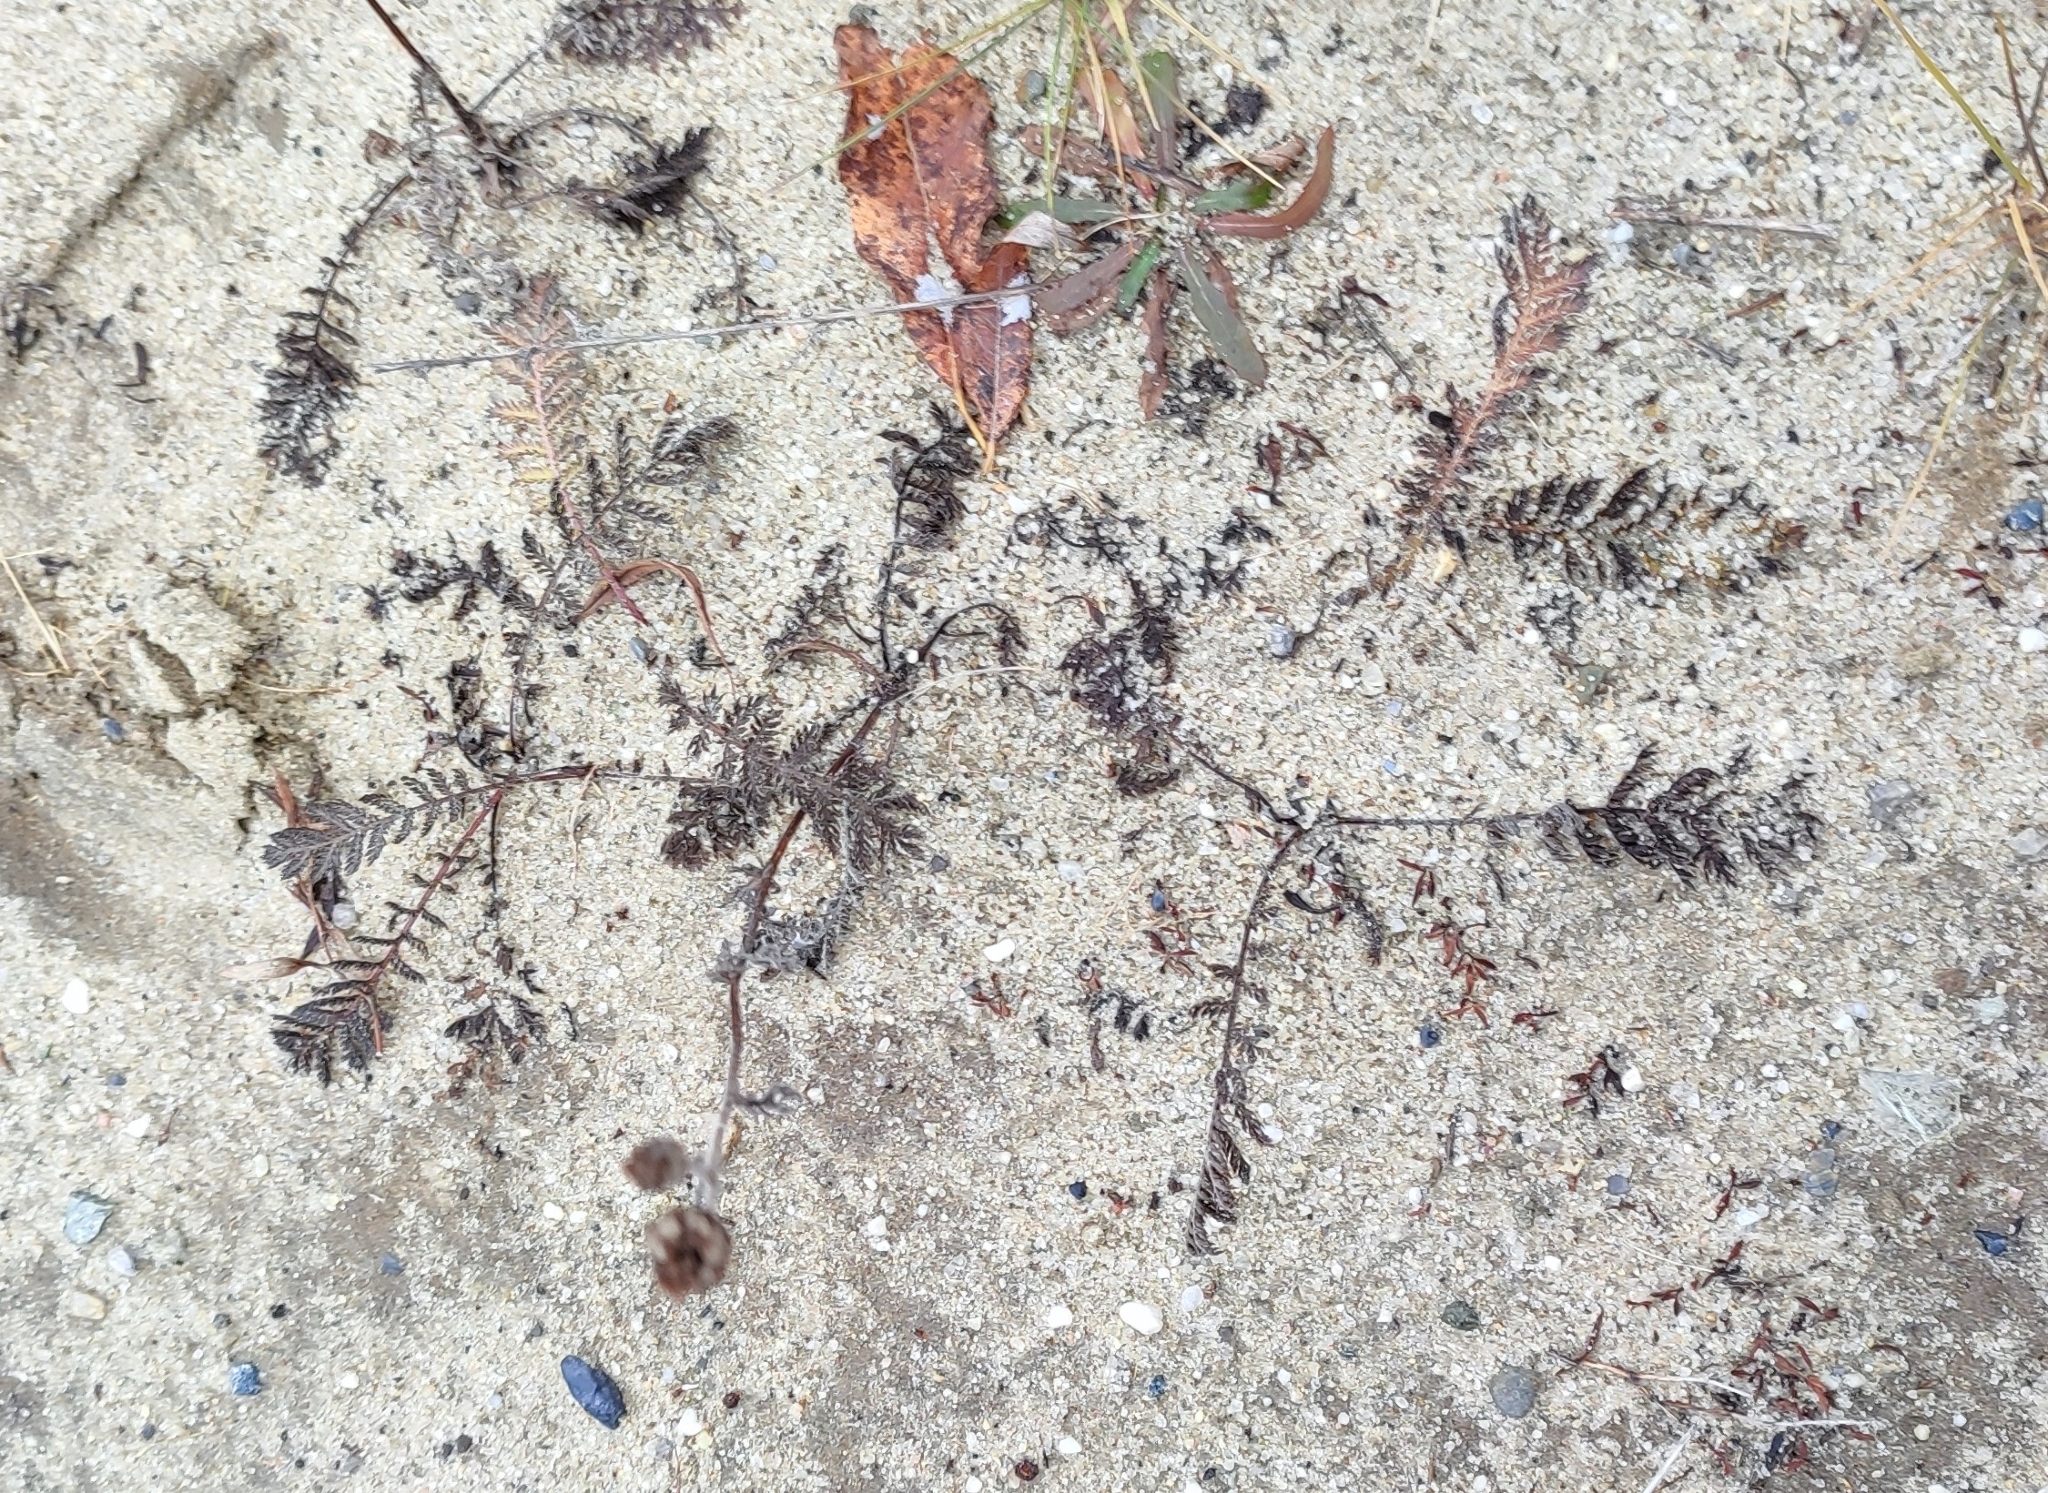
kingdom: Plantae
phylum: Tracheophyta
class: Magnoliopsida
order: Asterales
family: Asteraceae
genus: Tanacetum
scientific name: Tanacetum bipinnatum
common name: Dwarf tansy
